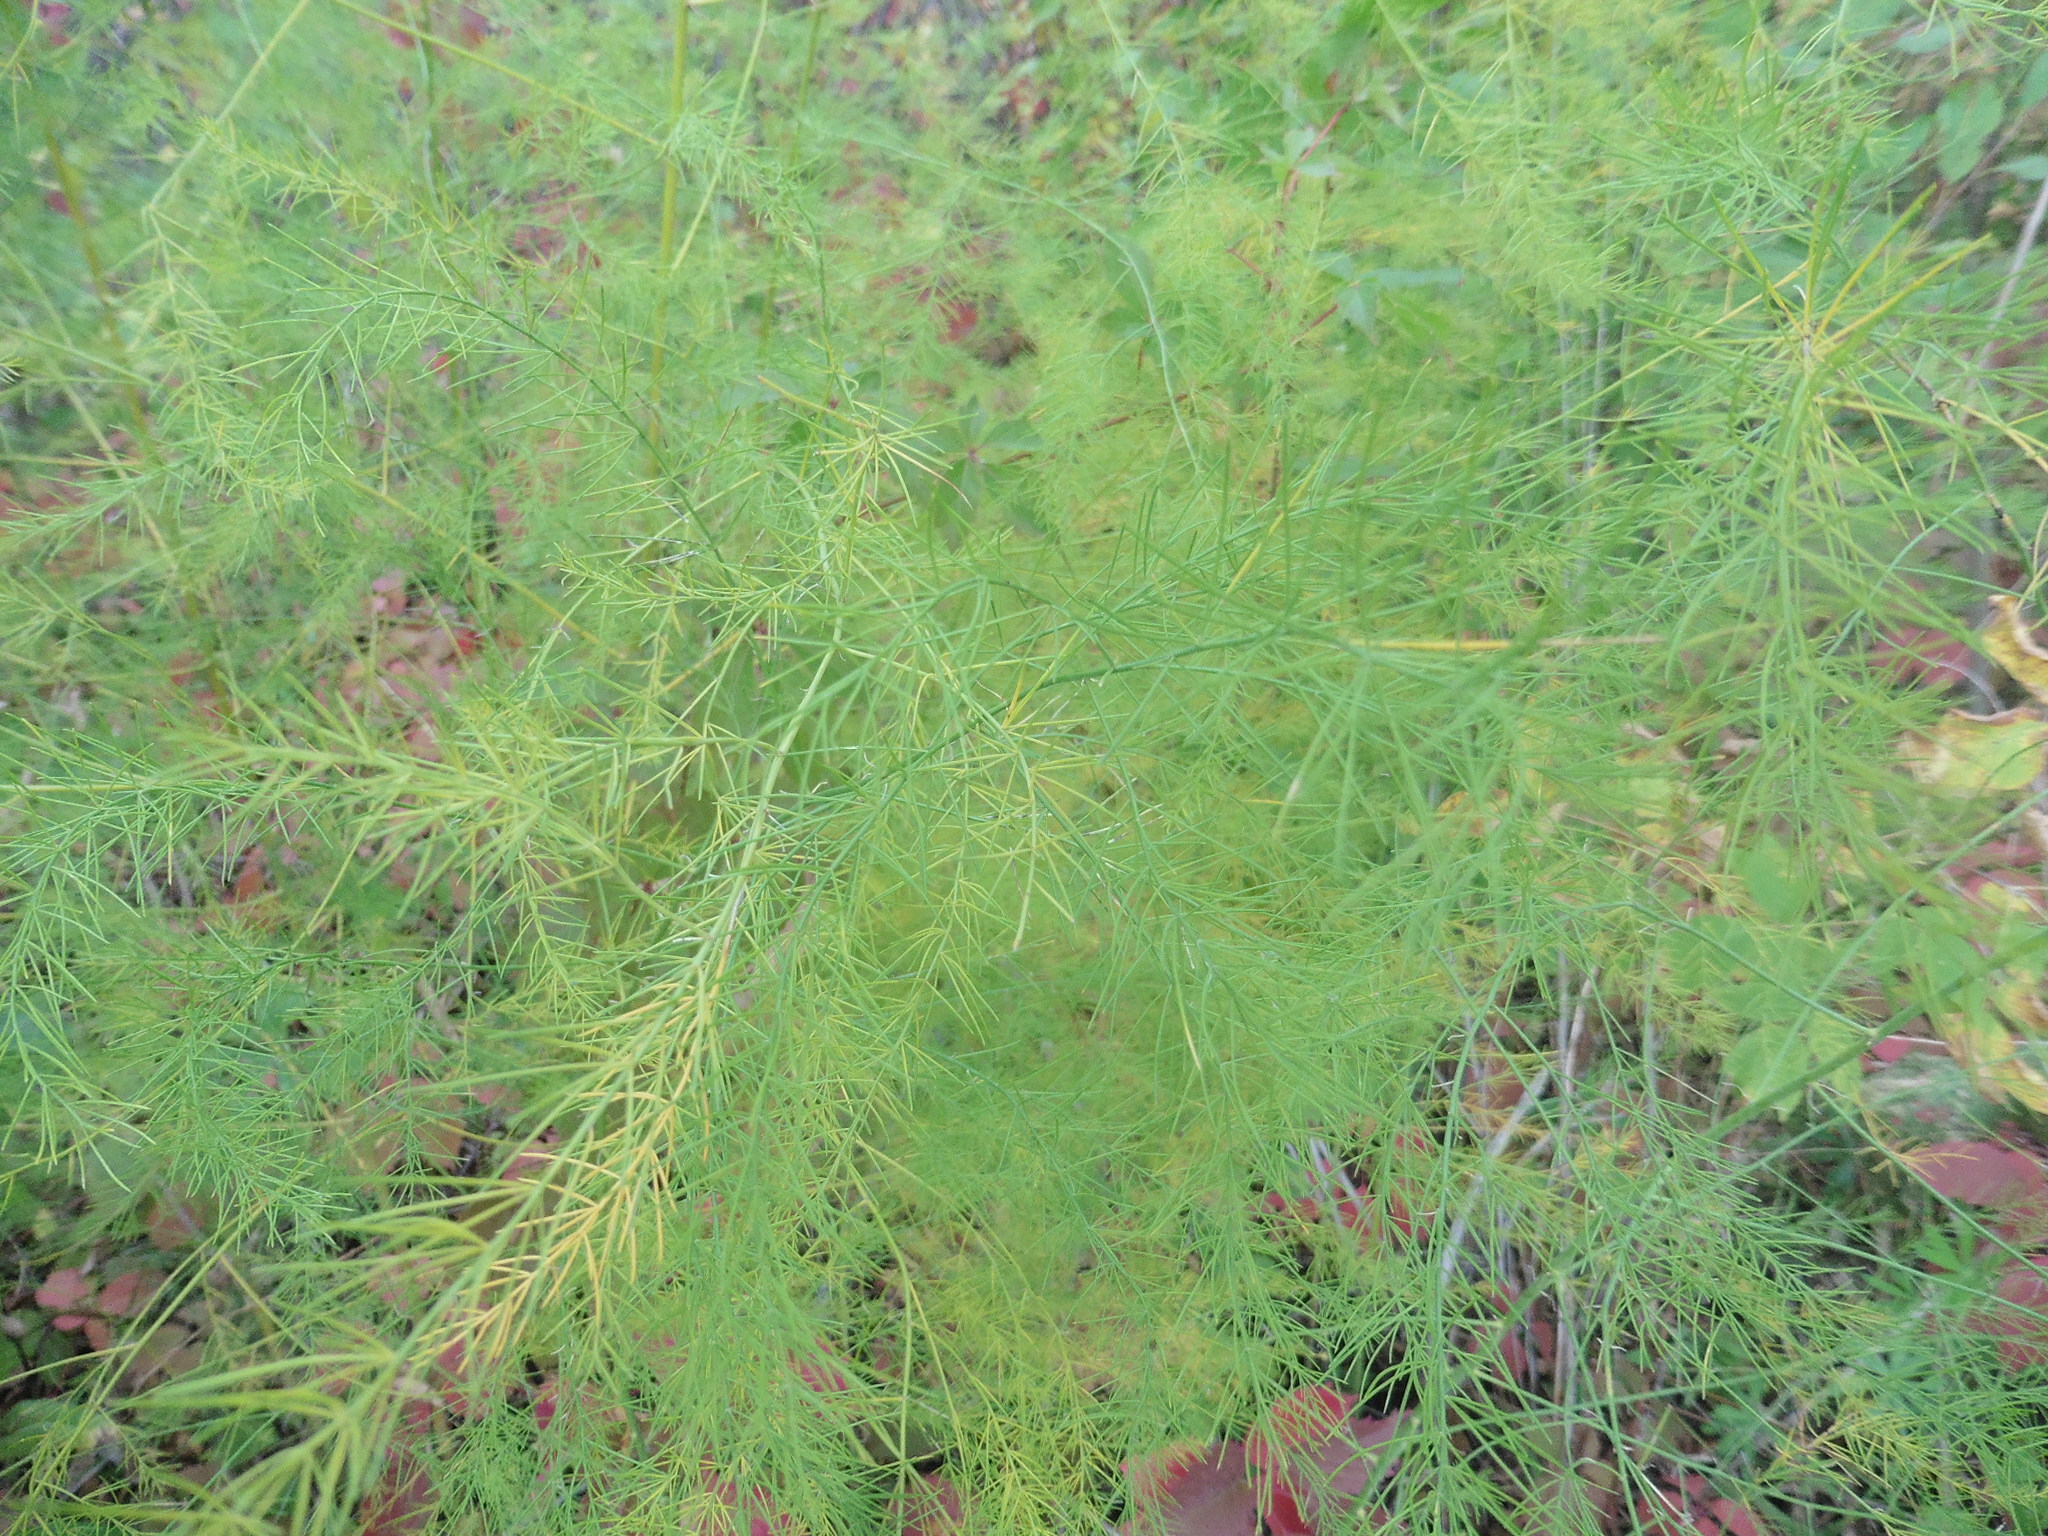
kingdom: Plantae
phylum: Tracheophyta
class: Liliopsida
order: Asparagales
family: Asparagaceae
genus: Asparagus
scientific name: Asparagus officinalis
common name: Garden asparagus
